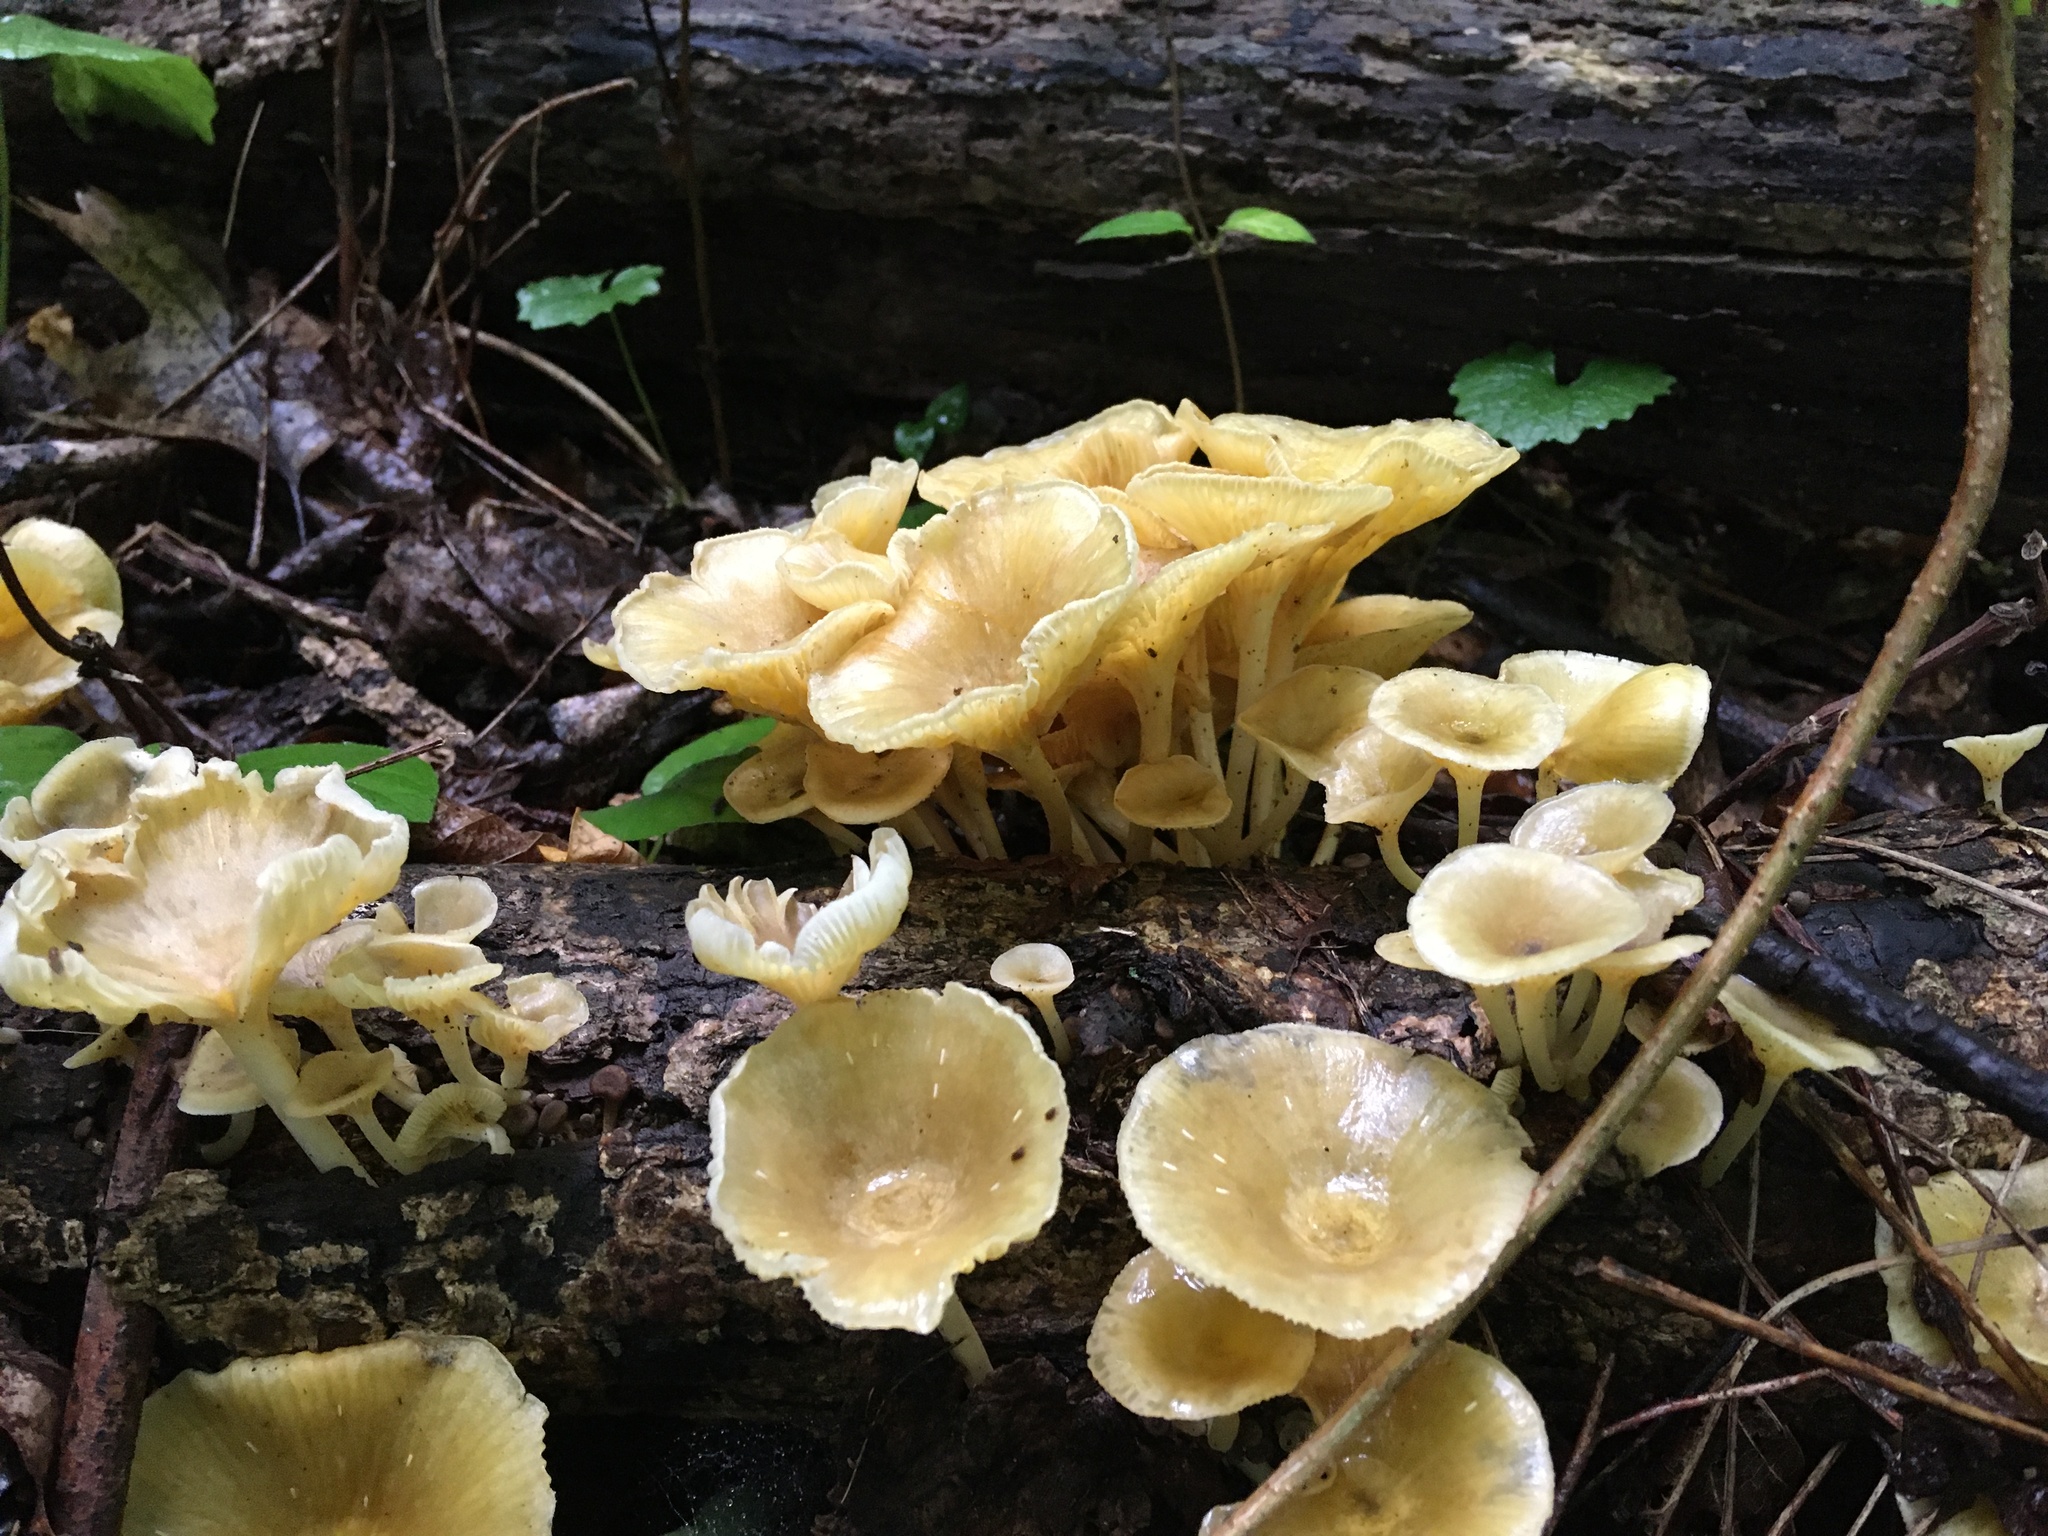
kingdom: Fungi
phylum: Basidiomycota
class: Agaricomycetes
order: Agaricales
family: Marasmiaceae
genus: Gerronema
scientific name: Gerronema strombodes
